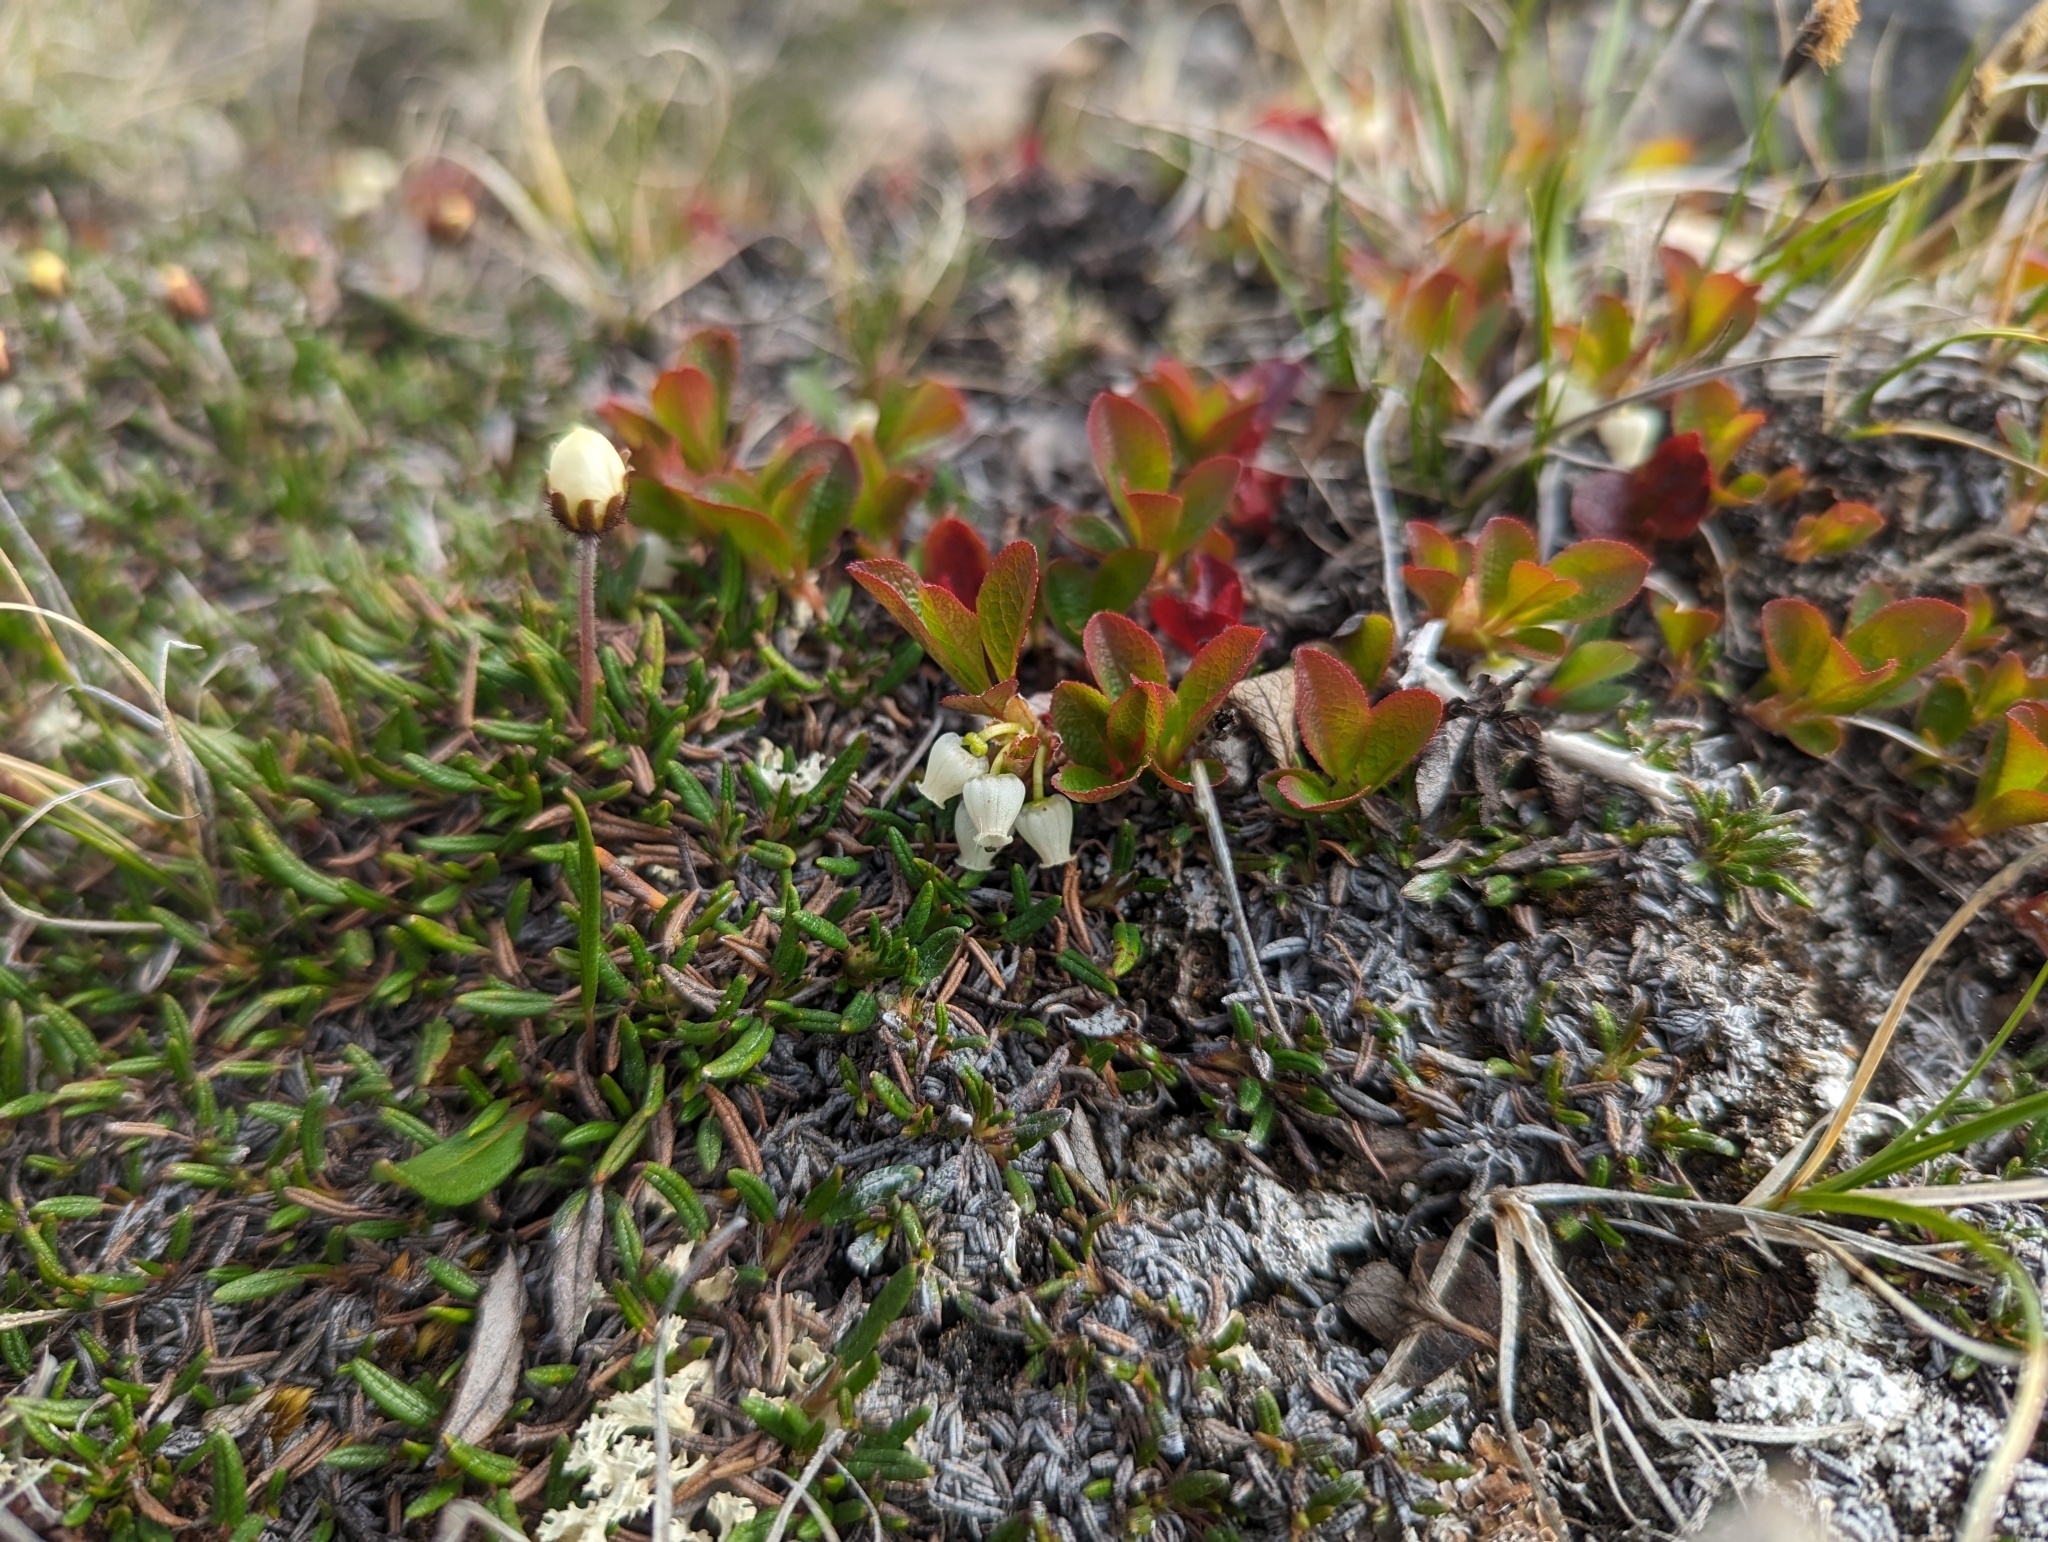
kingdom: Plantae
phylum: Tracheophyta
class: Magnoliopsida
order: Ericales
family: Ericaceae
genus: Arctostaphylos
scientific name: Arctostaphylos rubra
